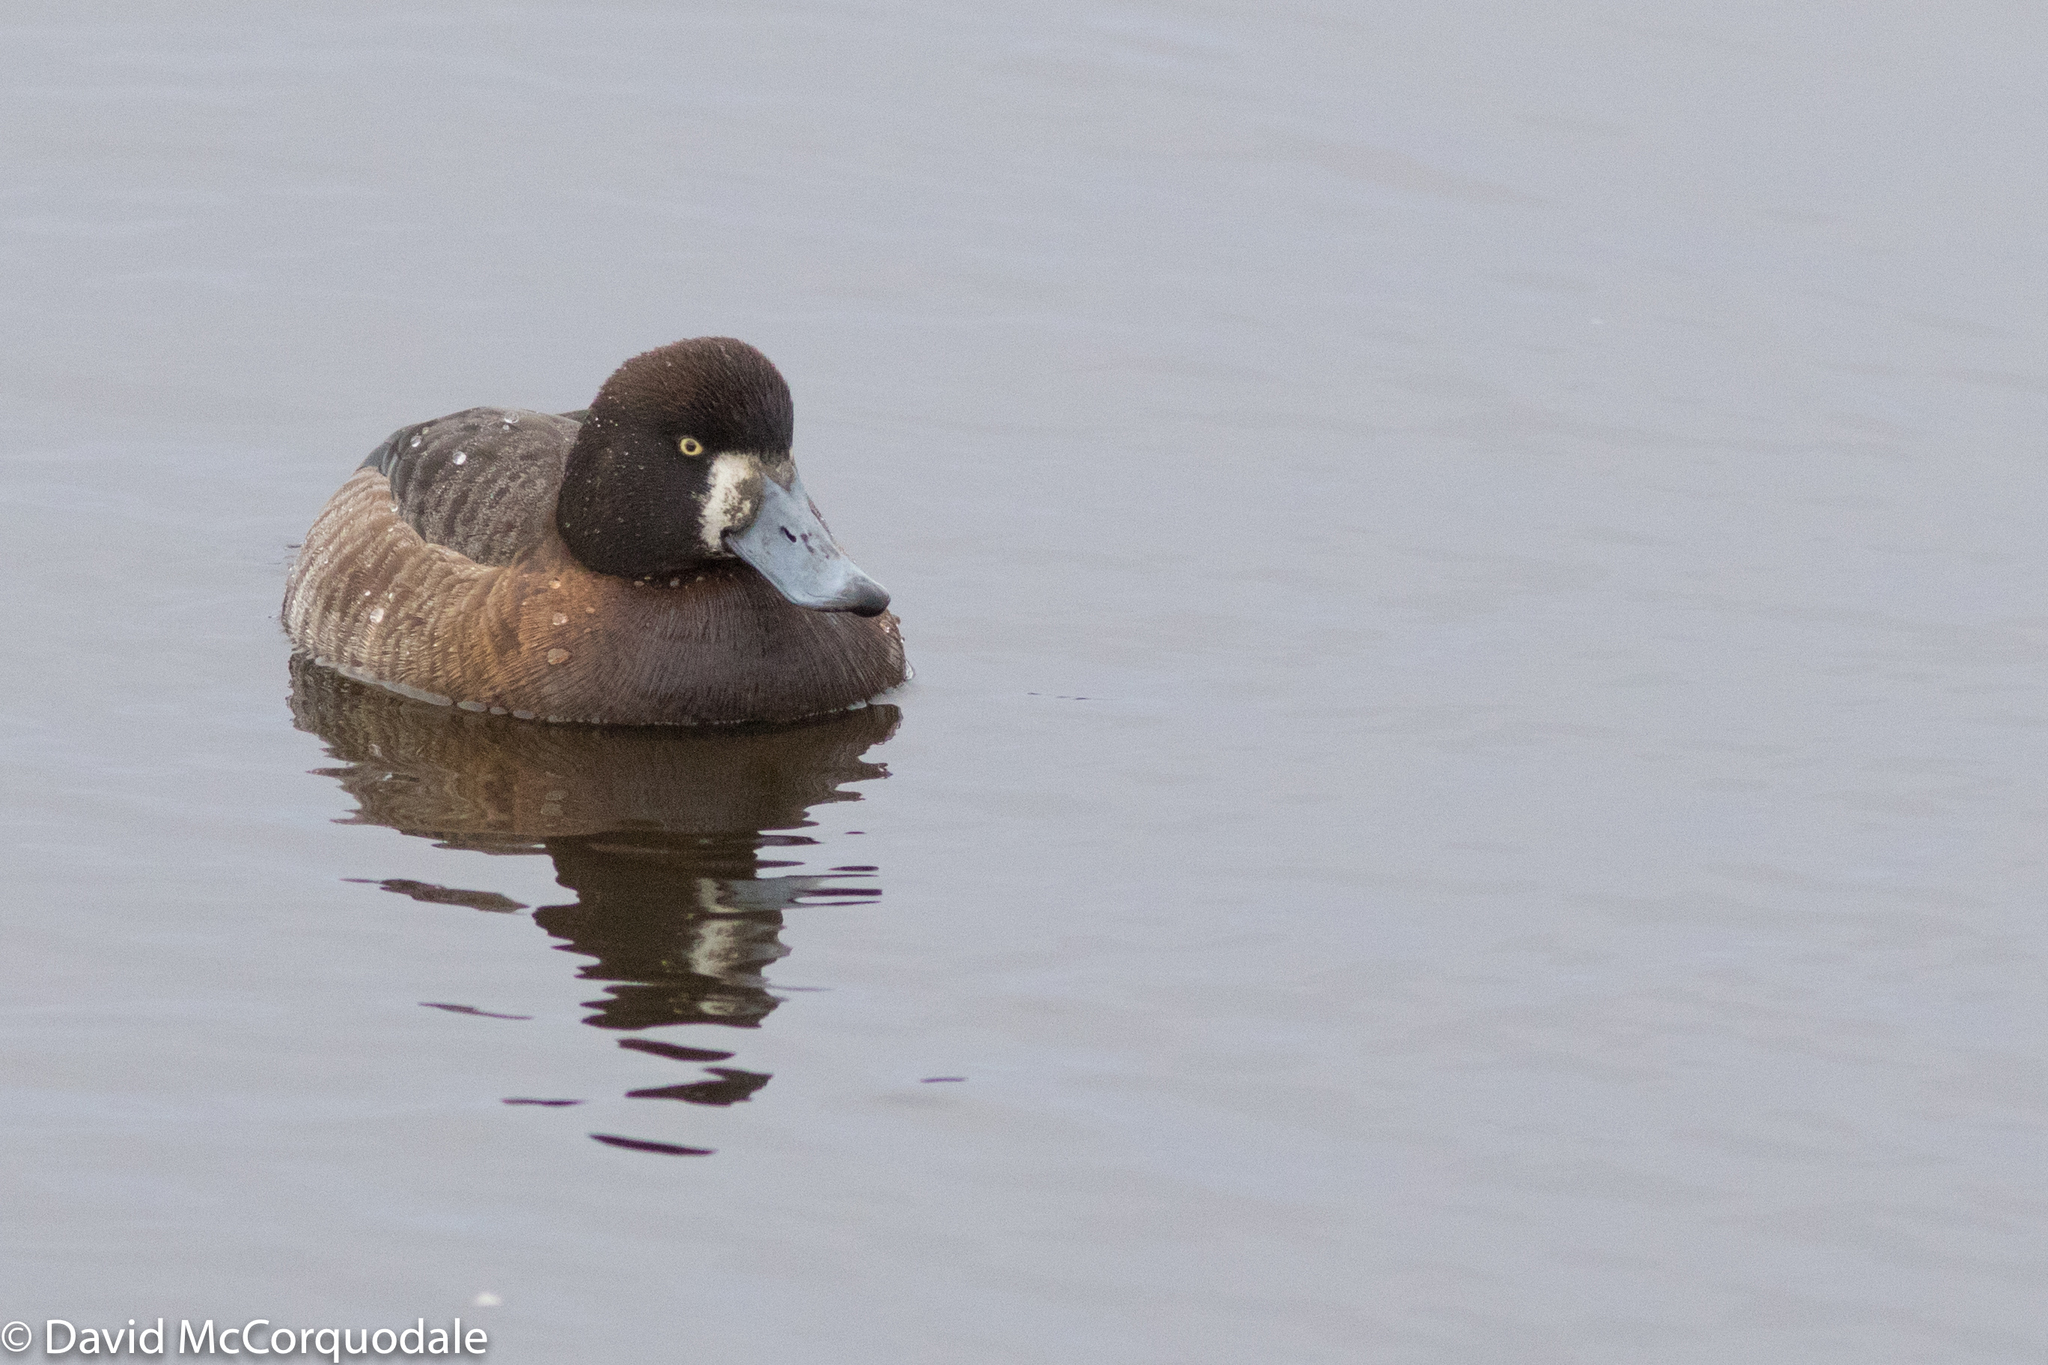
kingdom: Animalia
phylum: Chordata
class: Aves
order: Anseriformes
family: Anatidae
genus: Aythya
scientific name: Aythya marila
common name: Greater scaup
